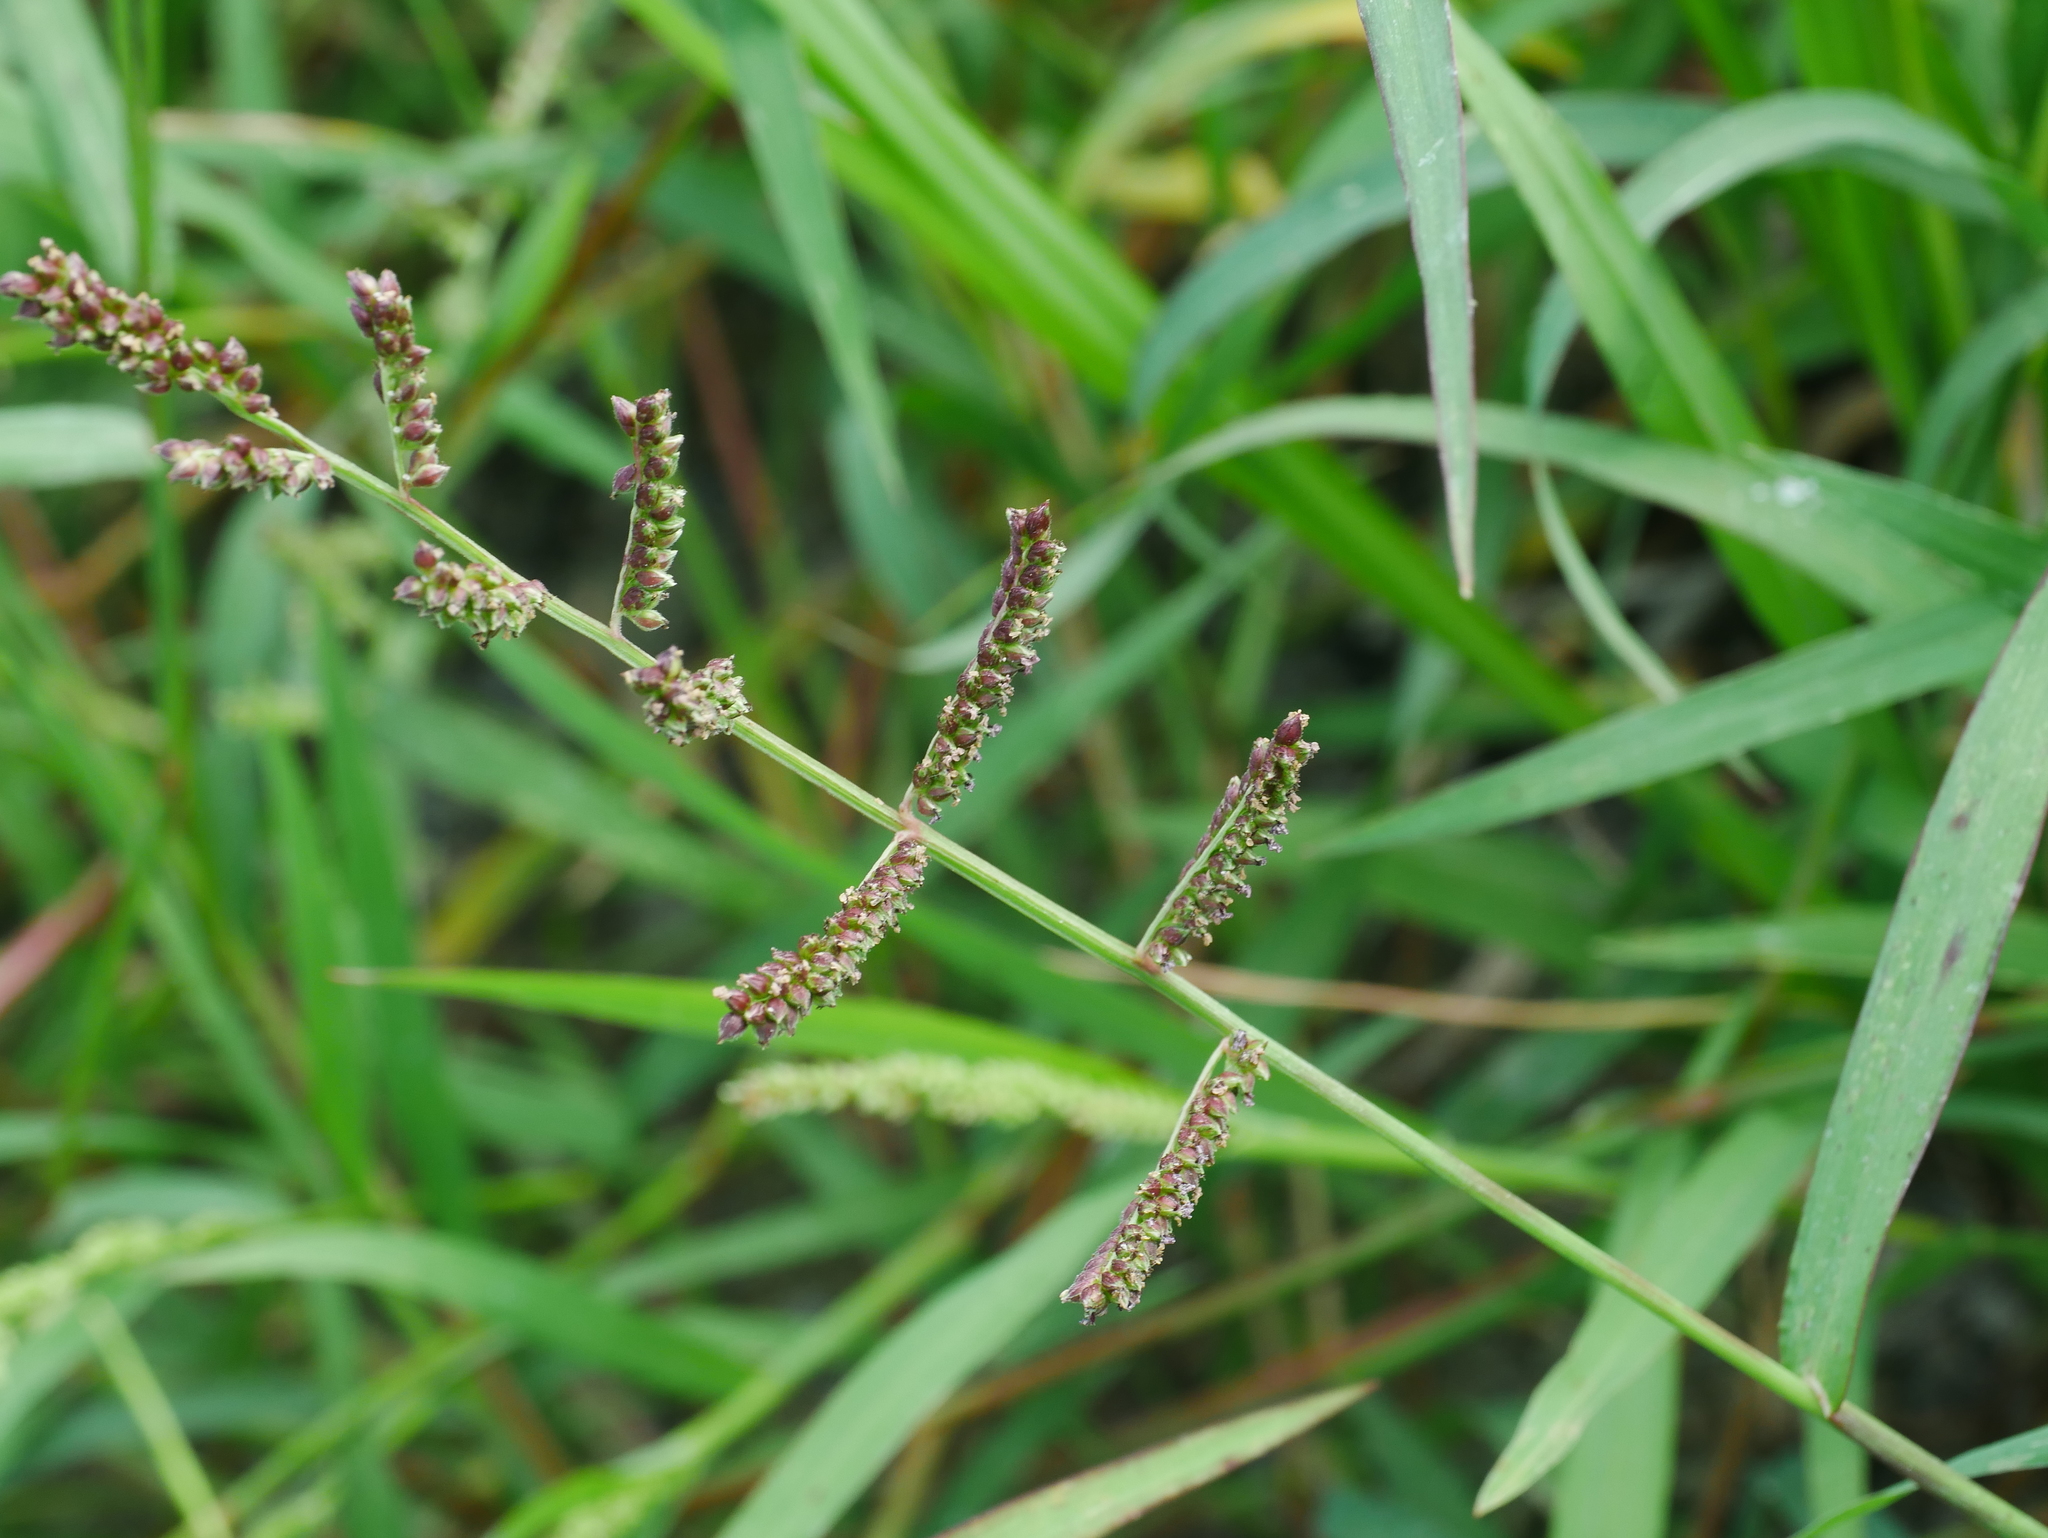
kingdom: Plantae
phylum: Tracheophyta
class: Liliopsida
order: Poales
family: Poaceae
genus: Echinochloa
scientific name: Echinochloa colonum
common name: Jungle rice
